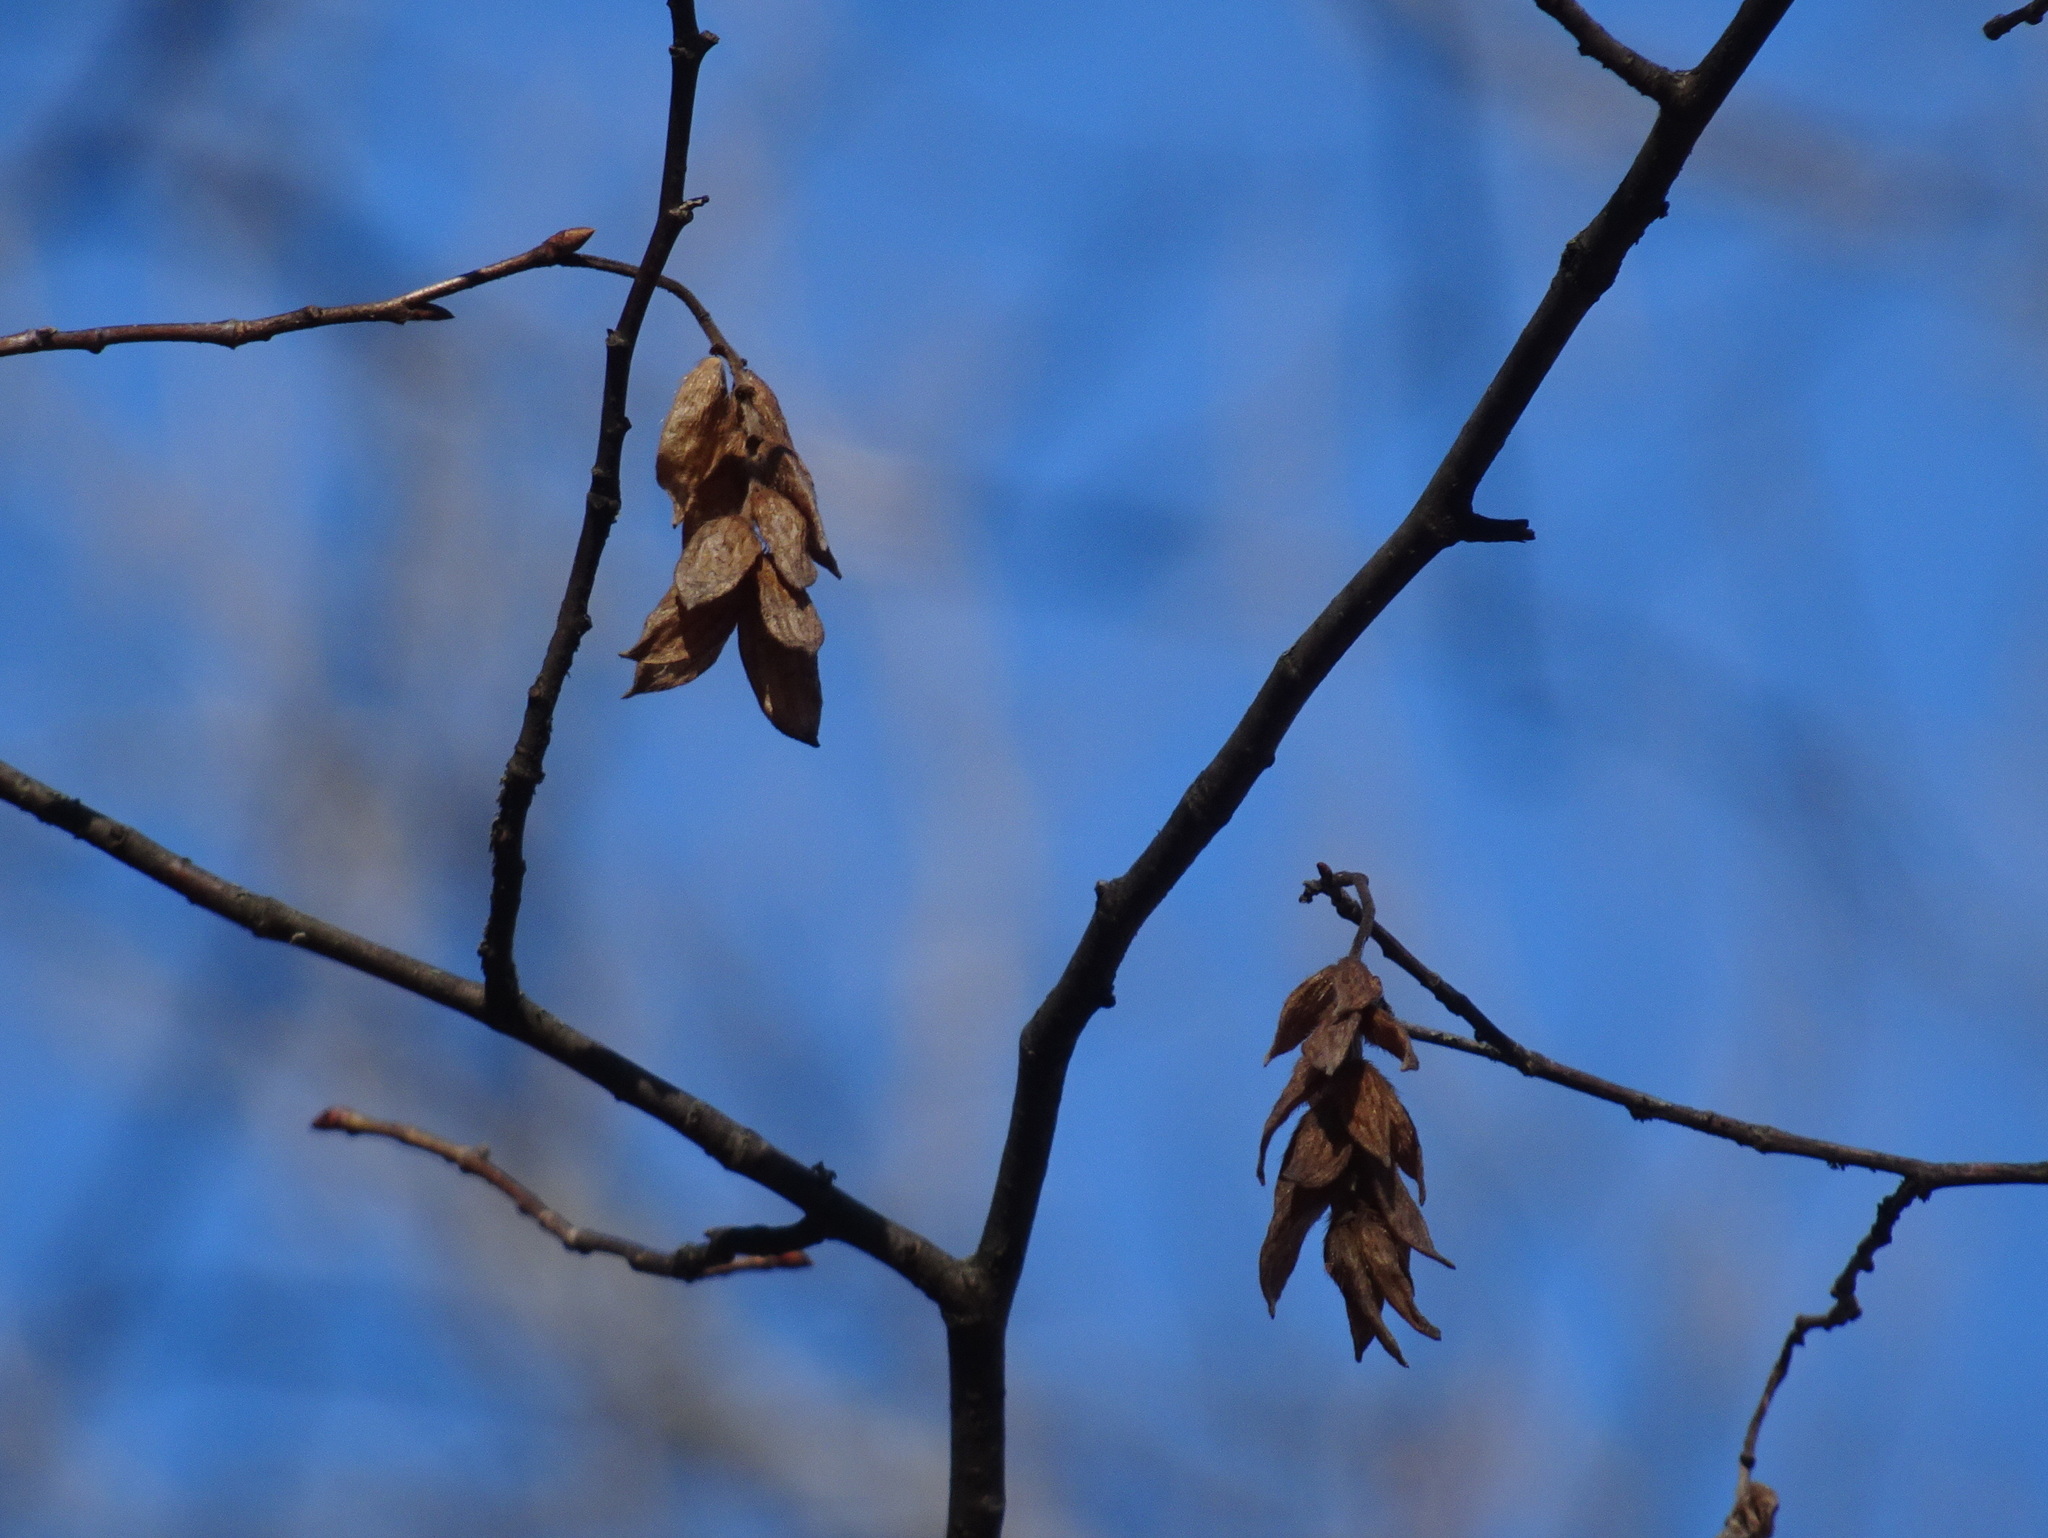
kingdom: Plantae
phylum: Tracheophyta
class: Magnoliopsida
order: Fagales
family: Betulaceae
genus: Ostrya
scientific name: Ostrya virginiana
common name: Ironwood
